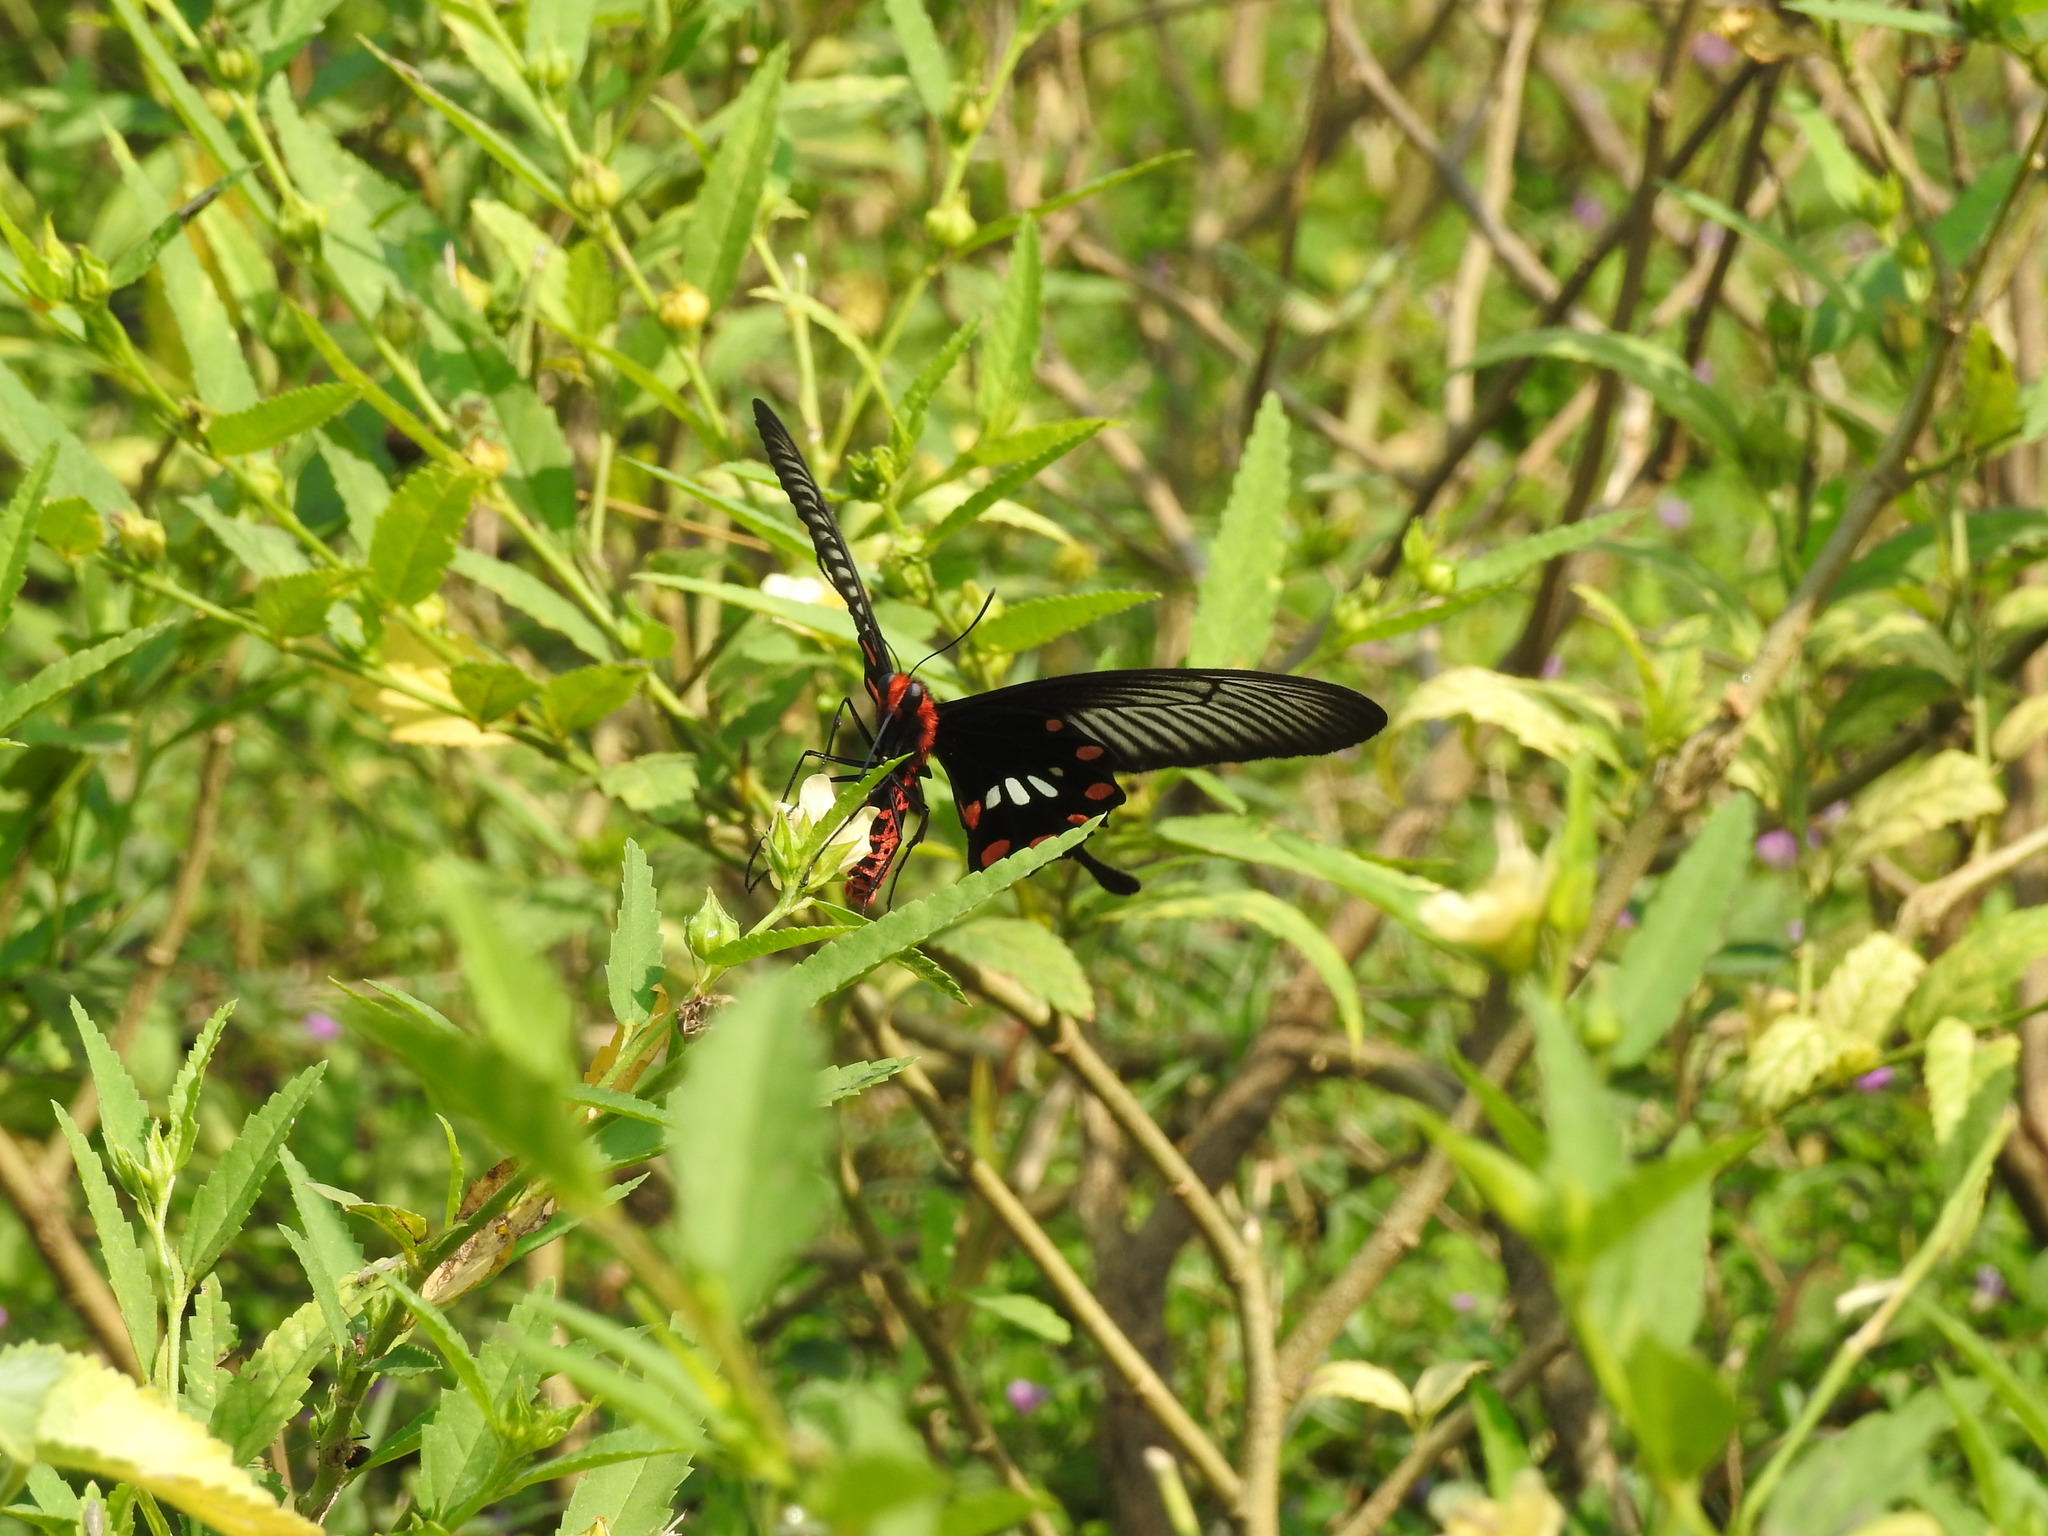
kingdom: Animalia
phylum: Arthropoda
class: Insecta
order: Lepidoptera
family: Papilionidae
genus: Pachliopta
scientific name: Pachliopta aristolochiae
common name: Common rose
